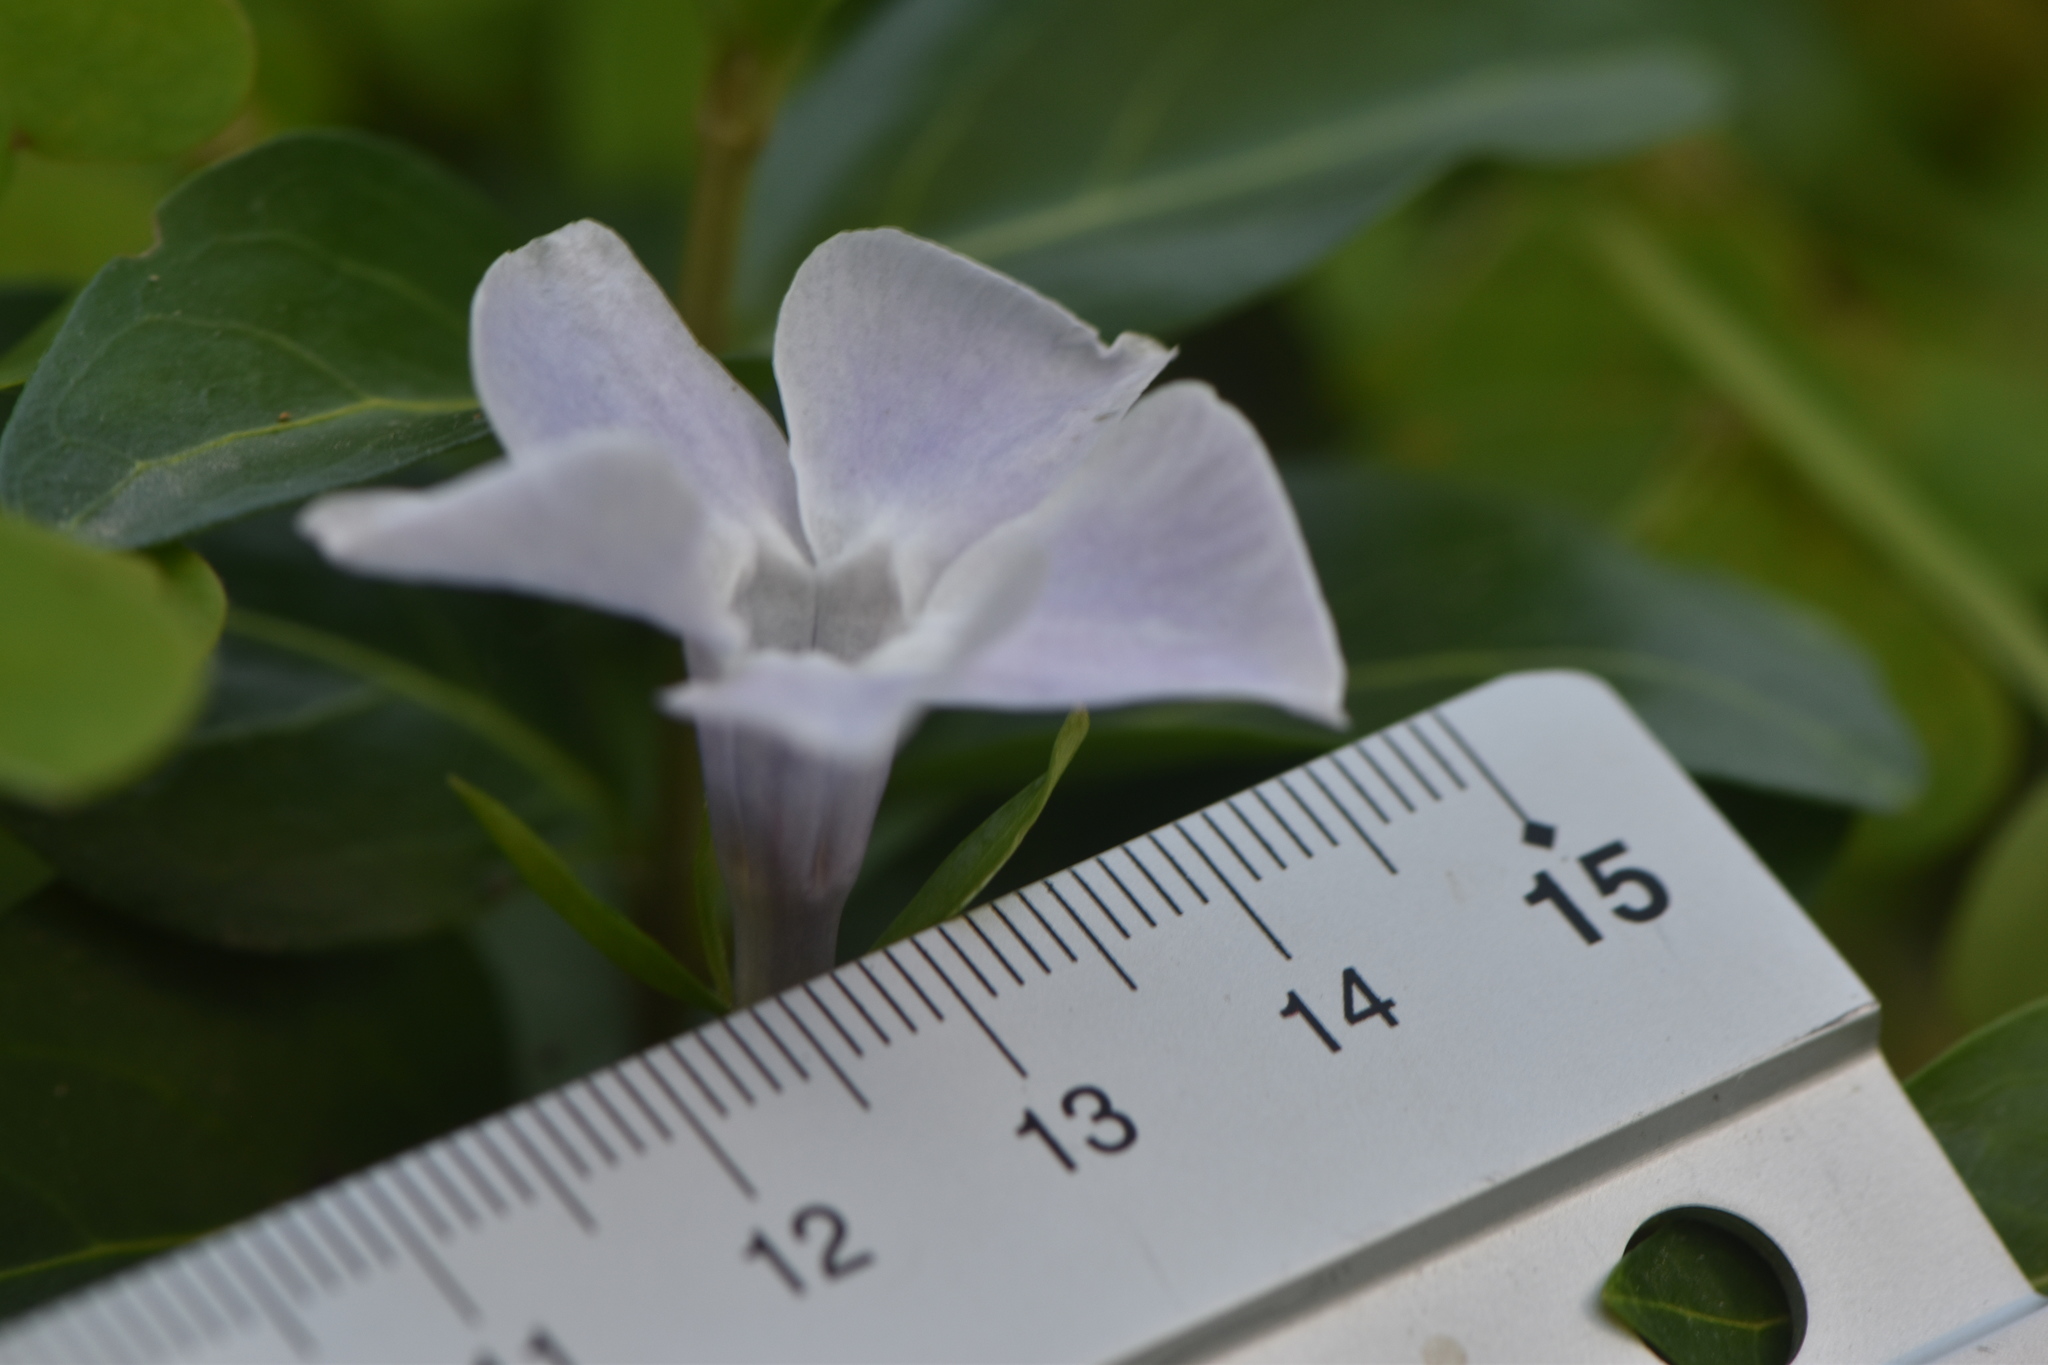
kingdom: Plantae
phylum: Tracheophyta
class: Magnoliopsida
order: Gentianales
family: Apocynaceae
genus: Vinca
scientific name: Vinca difformis
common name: Intermediate periwinkle
